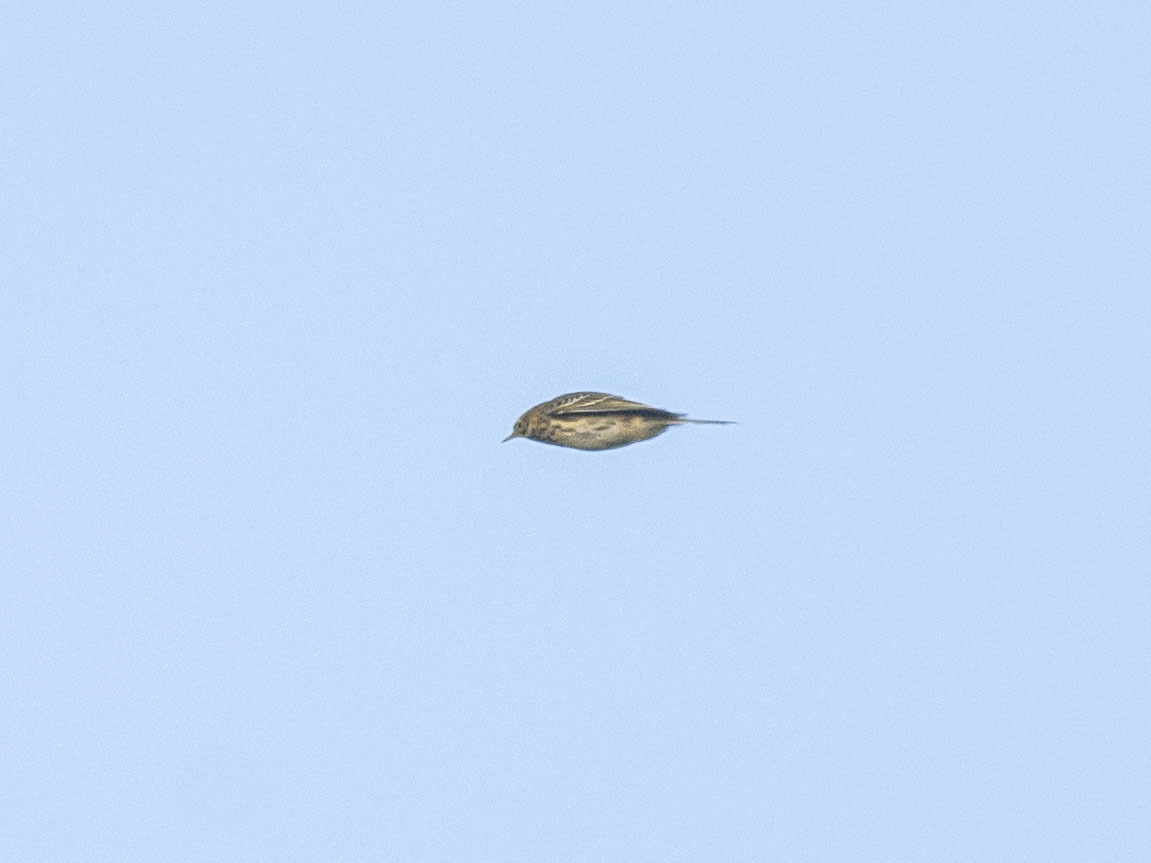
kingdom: Animalia
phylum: Chordata
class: Aves
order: Passeriformes
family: Motacillidae
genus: Anthus
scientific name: Anthus cervinus
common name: Red-throated pipit
